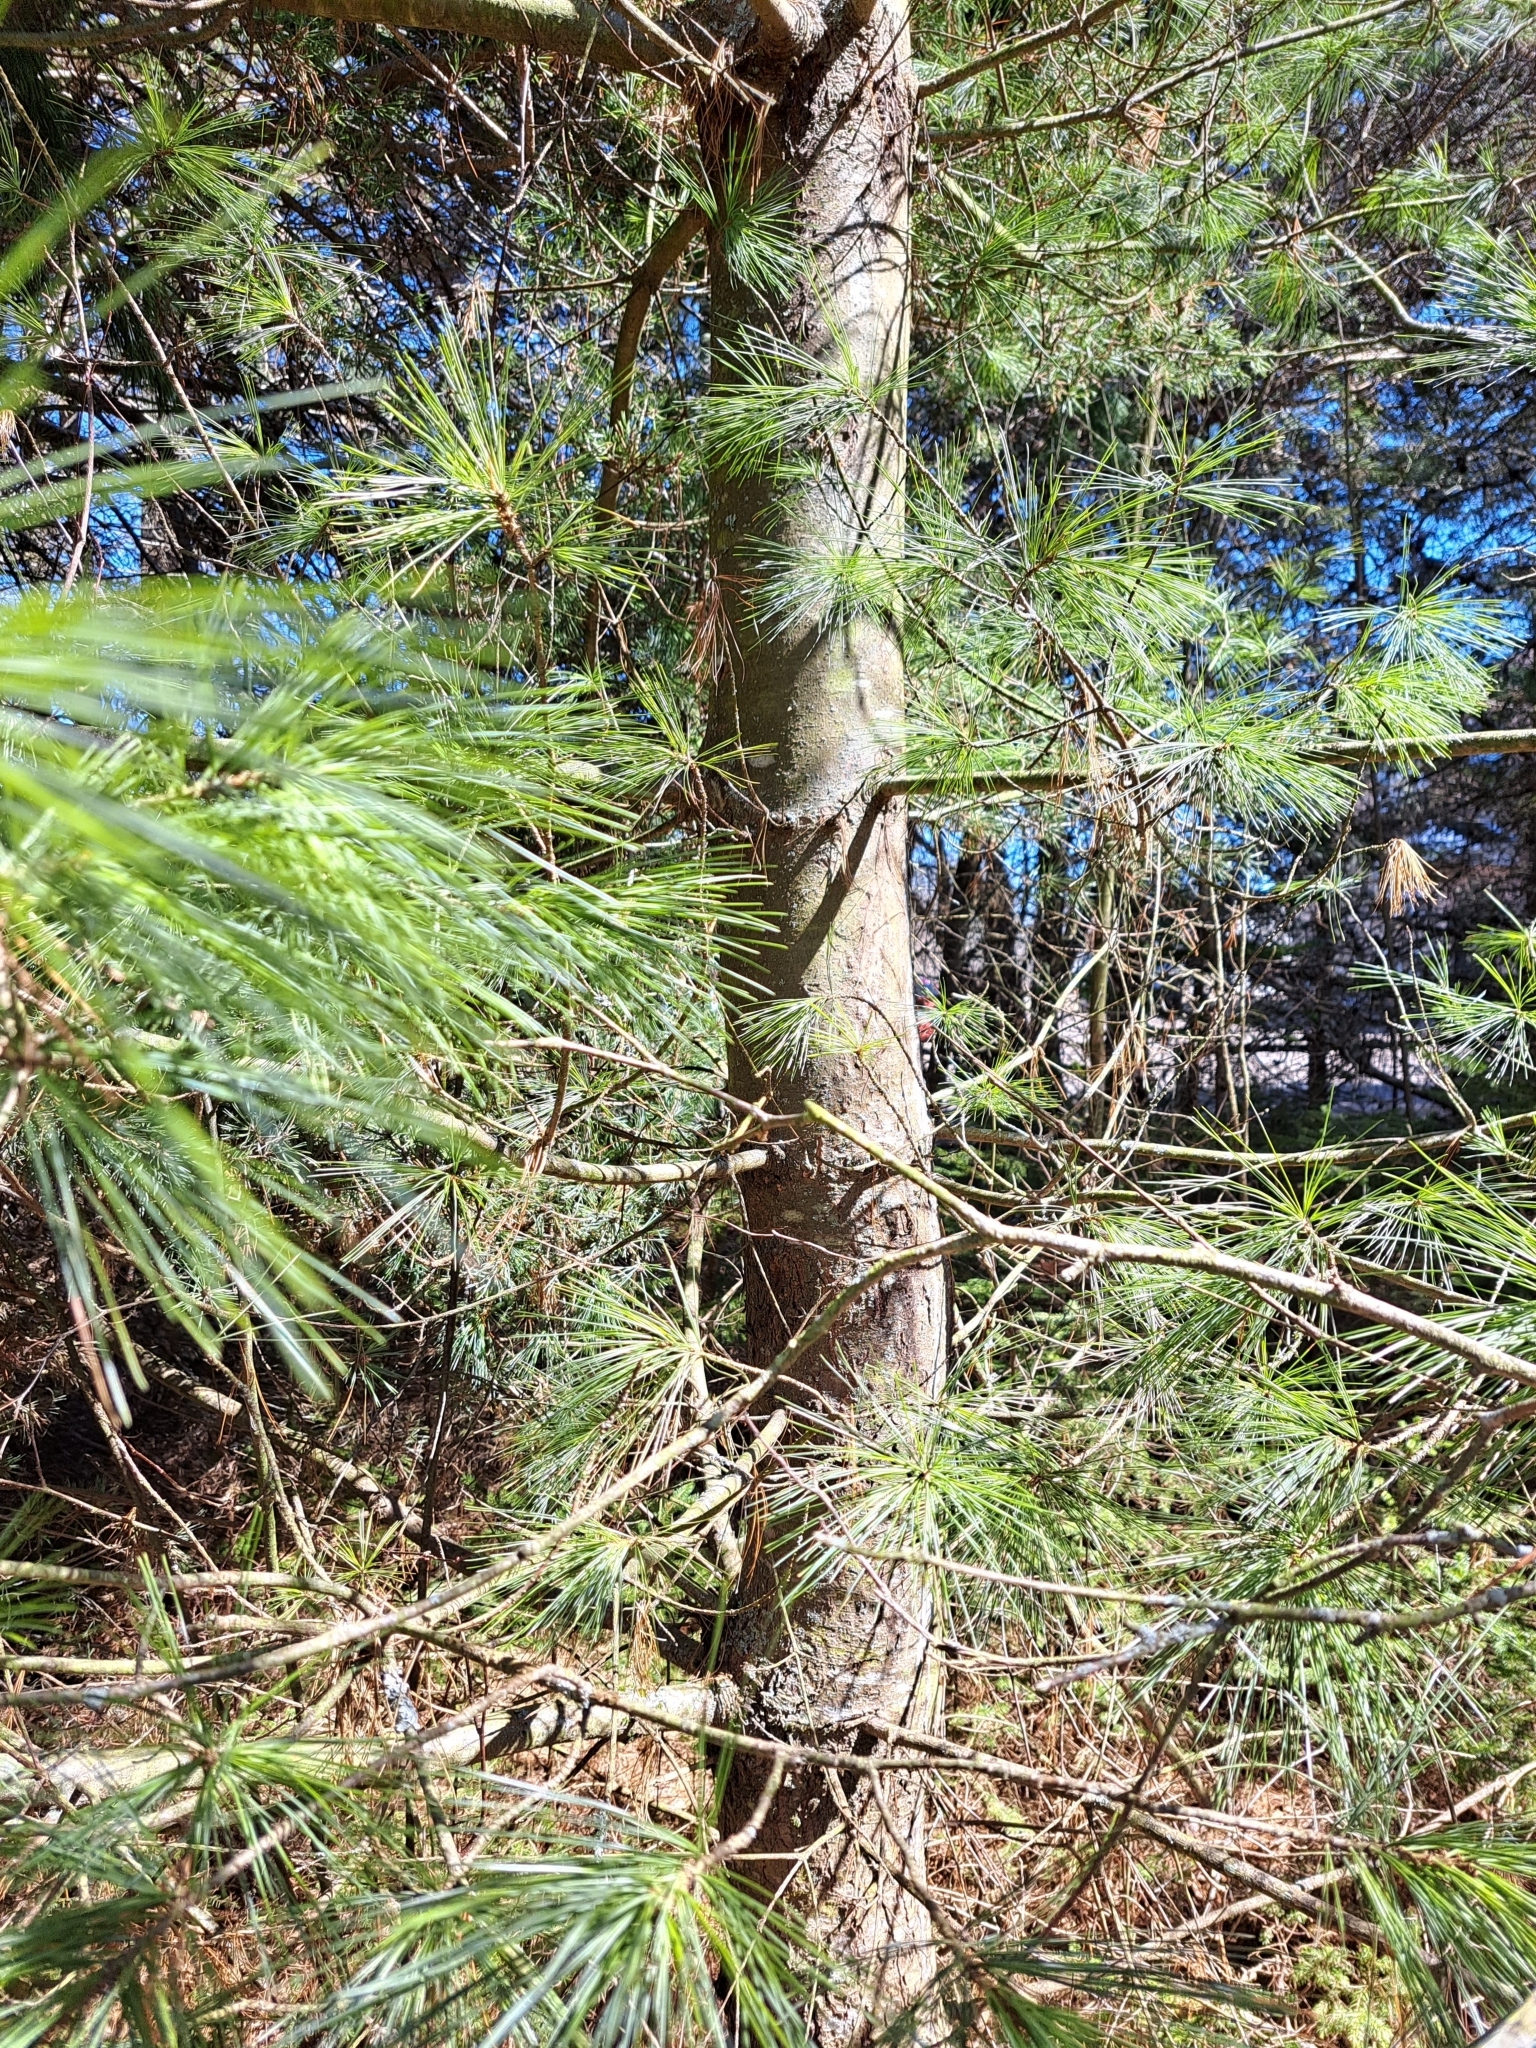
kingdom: Plantae
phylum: Tracheophyta
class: Pinopsida
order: Pinales
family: Pinaceae
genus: Pinus
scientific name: Pinus strobus
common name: Weymouth pine
